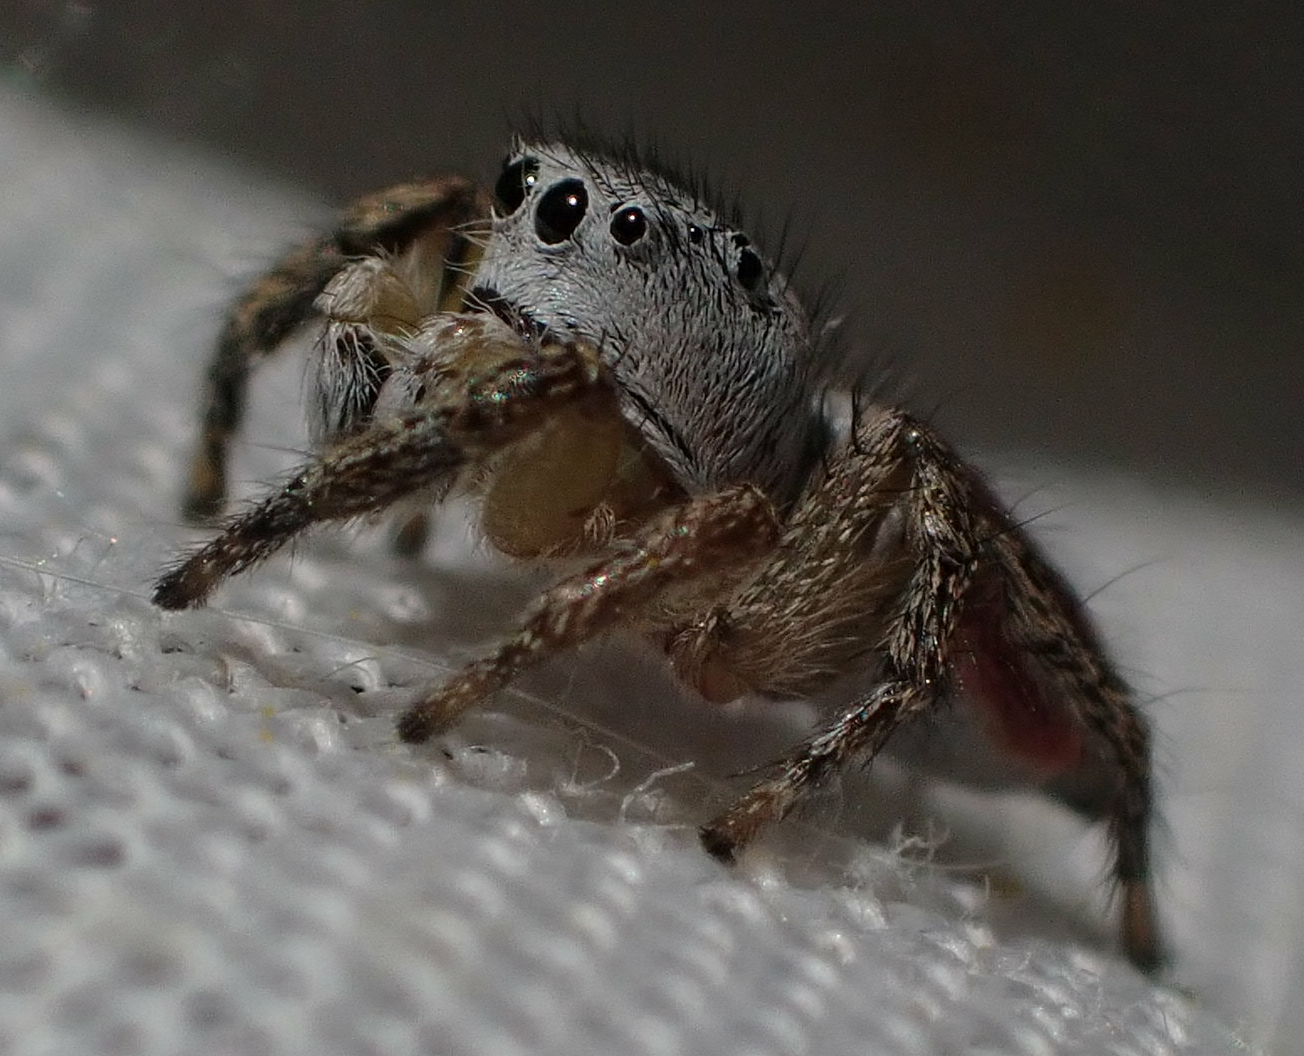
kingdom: Animalia
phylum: Arthropoda
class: Arachnida
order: Araneae
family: Salticidae
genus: Habronattus
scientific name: Habronattus decorus
